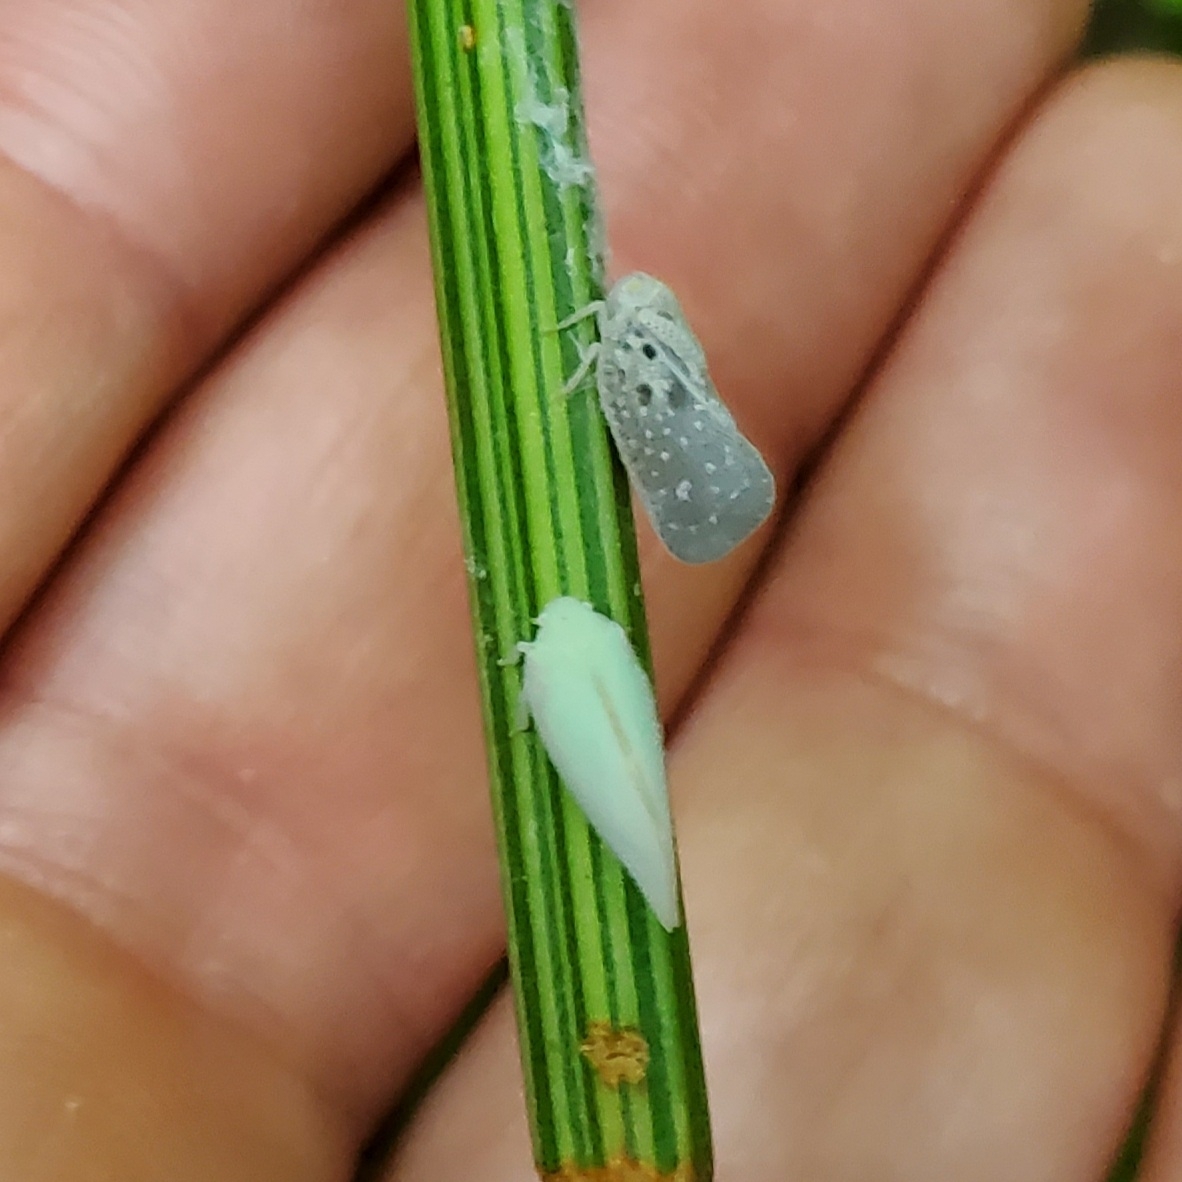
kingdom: Animalia
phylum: Arthropoda
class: Insecta
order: Hemiptera
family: Flatidae
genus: Metcalfa
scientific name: Metcalfa pruinosa
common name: Citrus flatid planthopper
